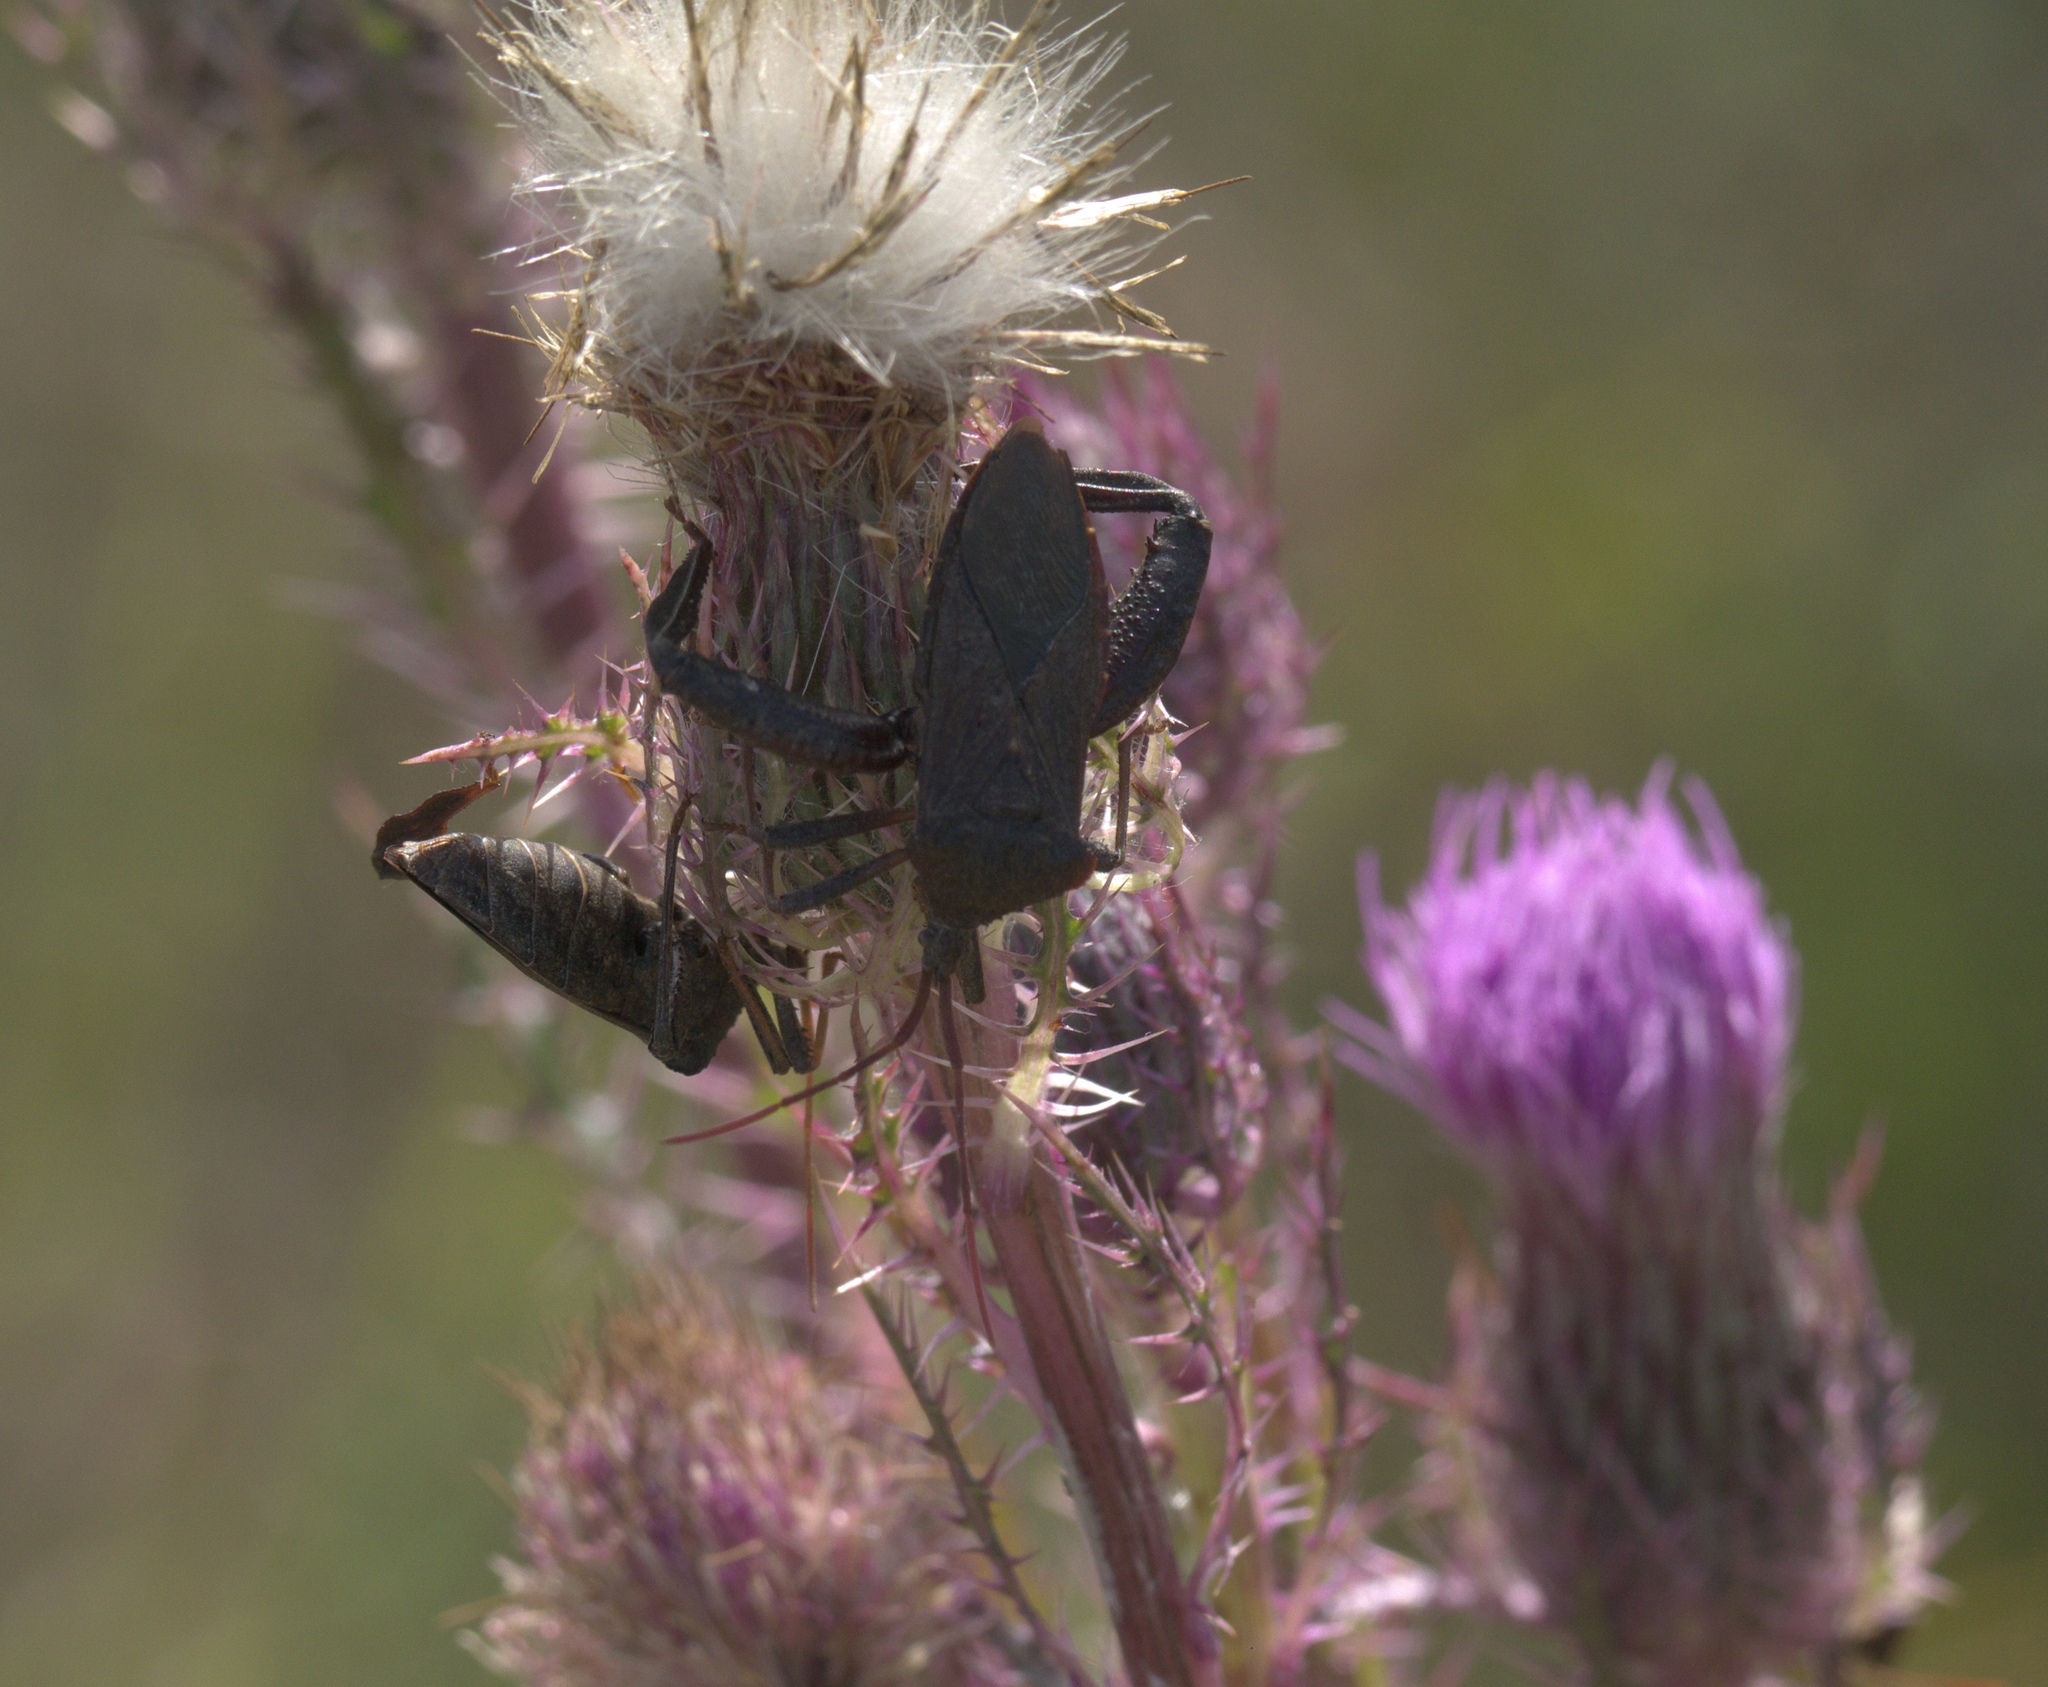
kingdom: Plantae
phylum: Tracheophyta
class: Magnoliopsida
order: Asterales
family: Asteraceae
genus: Cirsium
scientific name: Cirsium horridulum
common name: Bristly thistle
